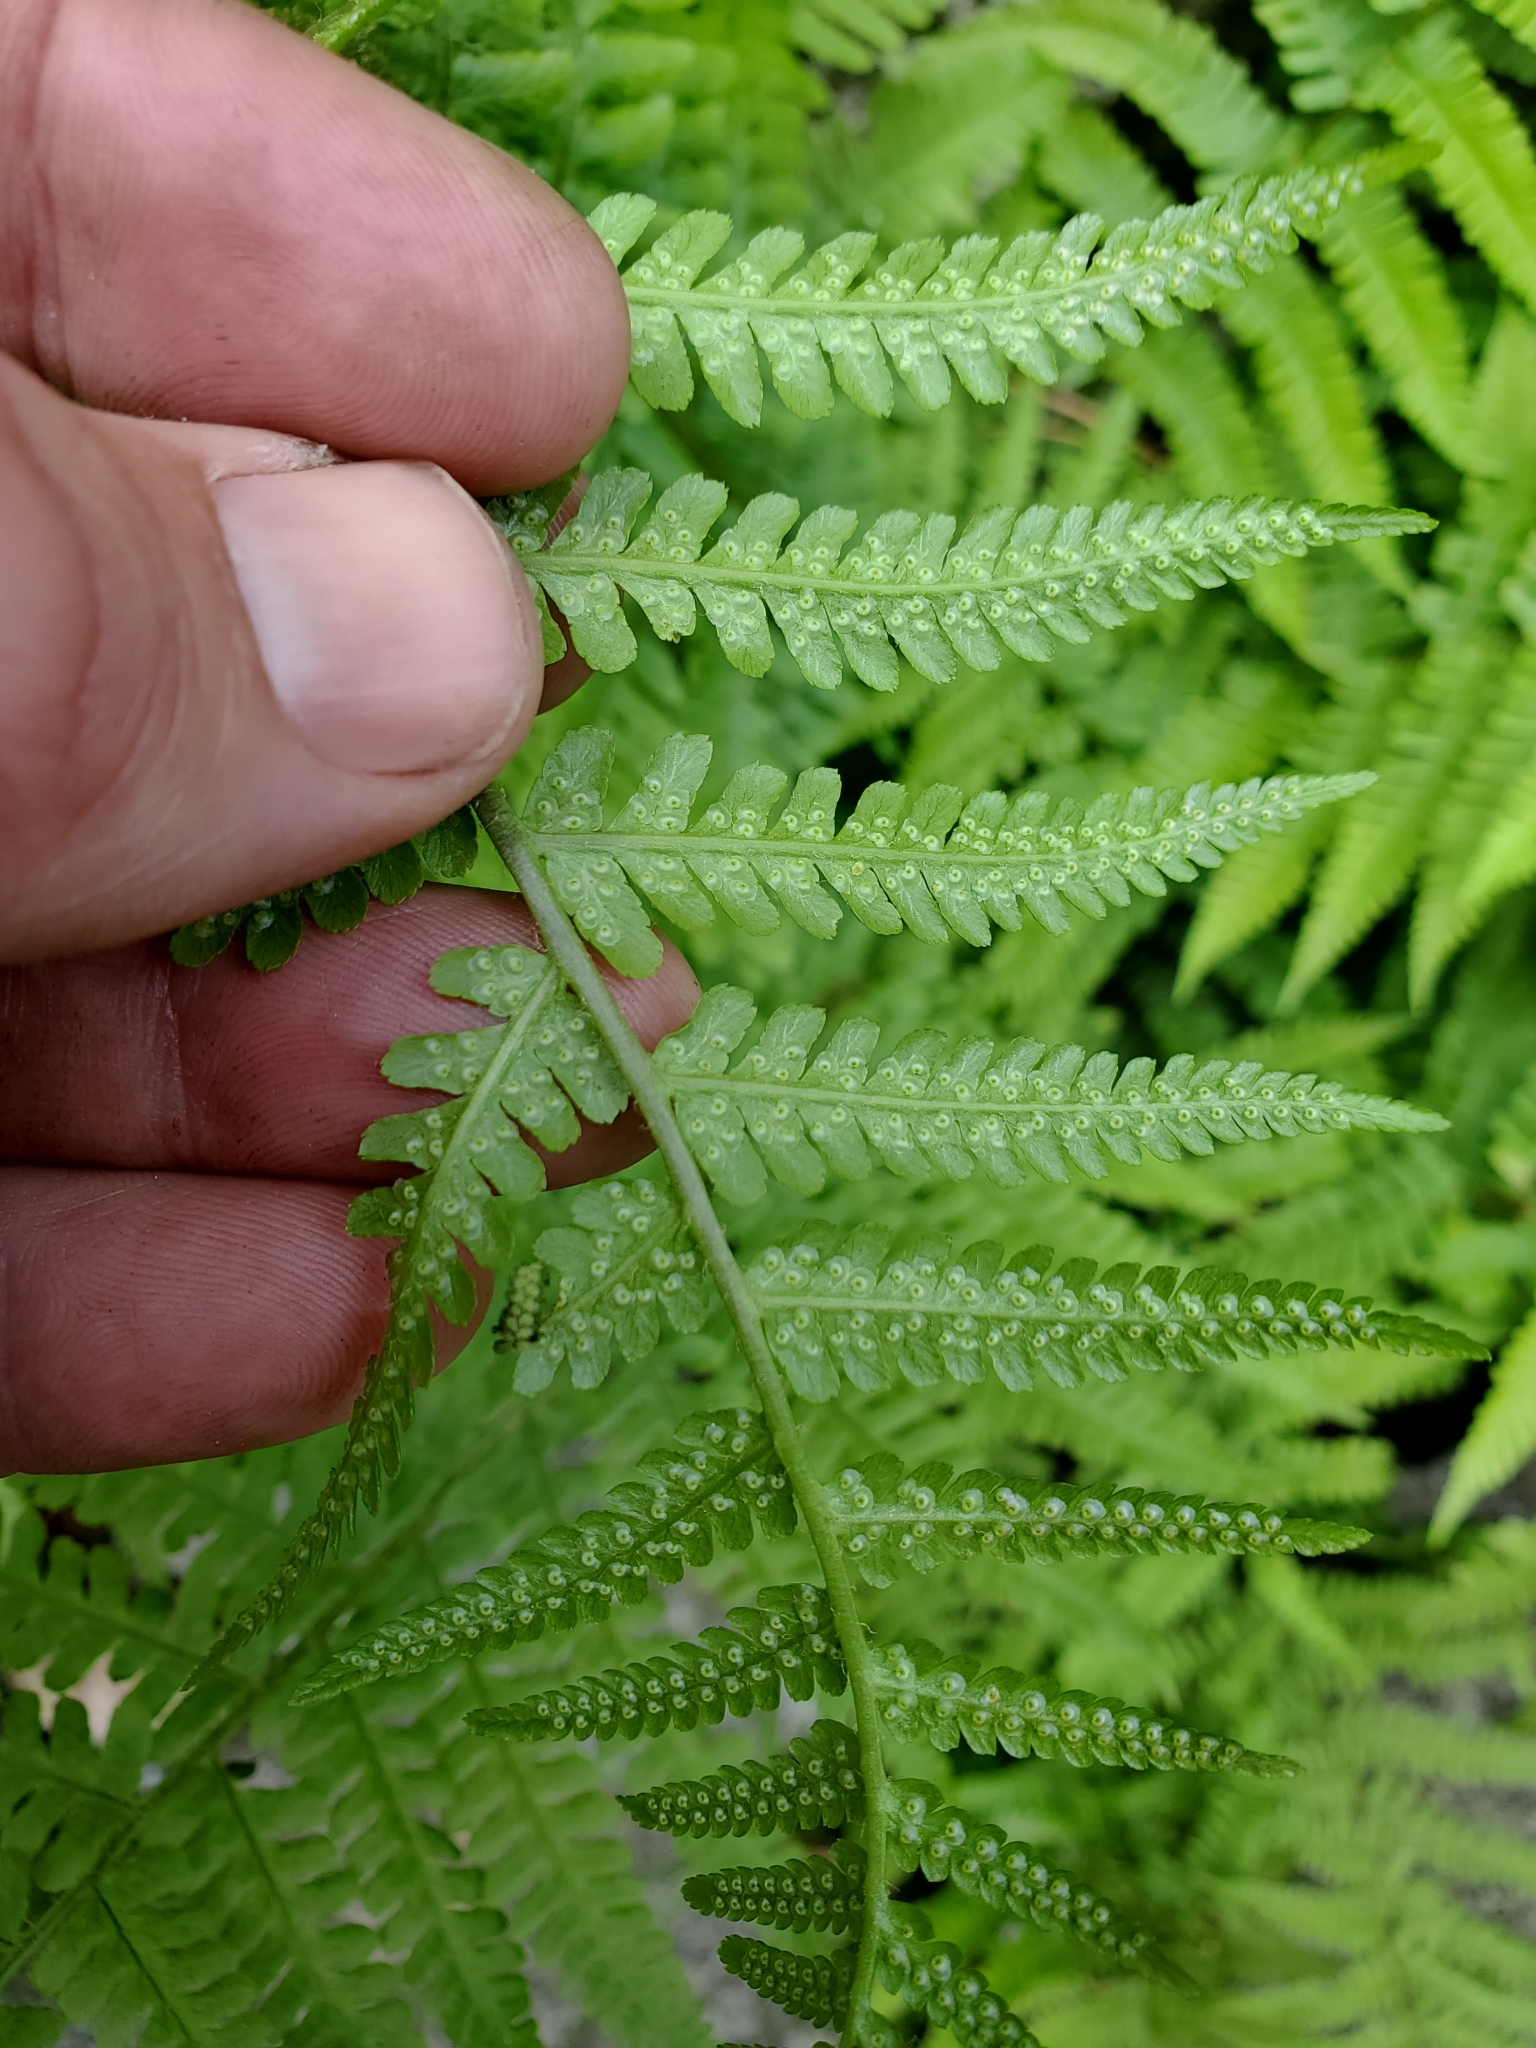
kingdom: Plantae
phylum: Tracheophyta
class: Polypodiopsida
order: Polypodiales
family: Dryopteridaceae
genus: Dryopteris
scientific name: Dryopteris filix-mas
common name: Male fern
